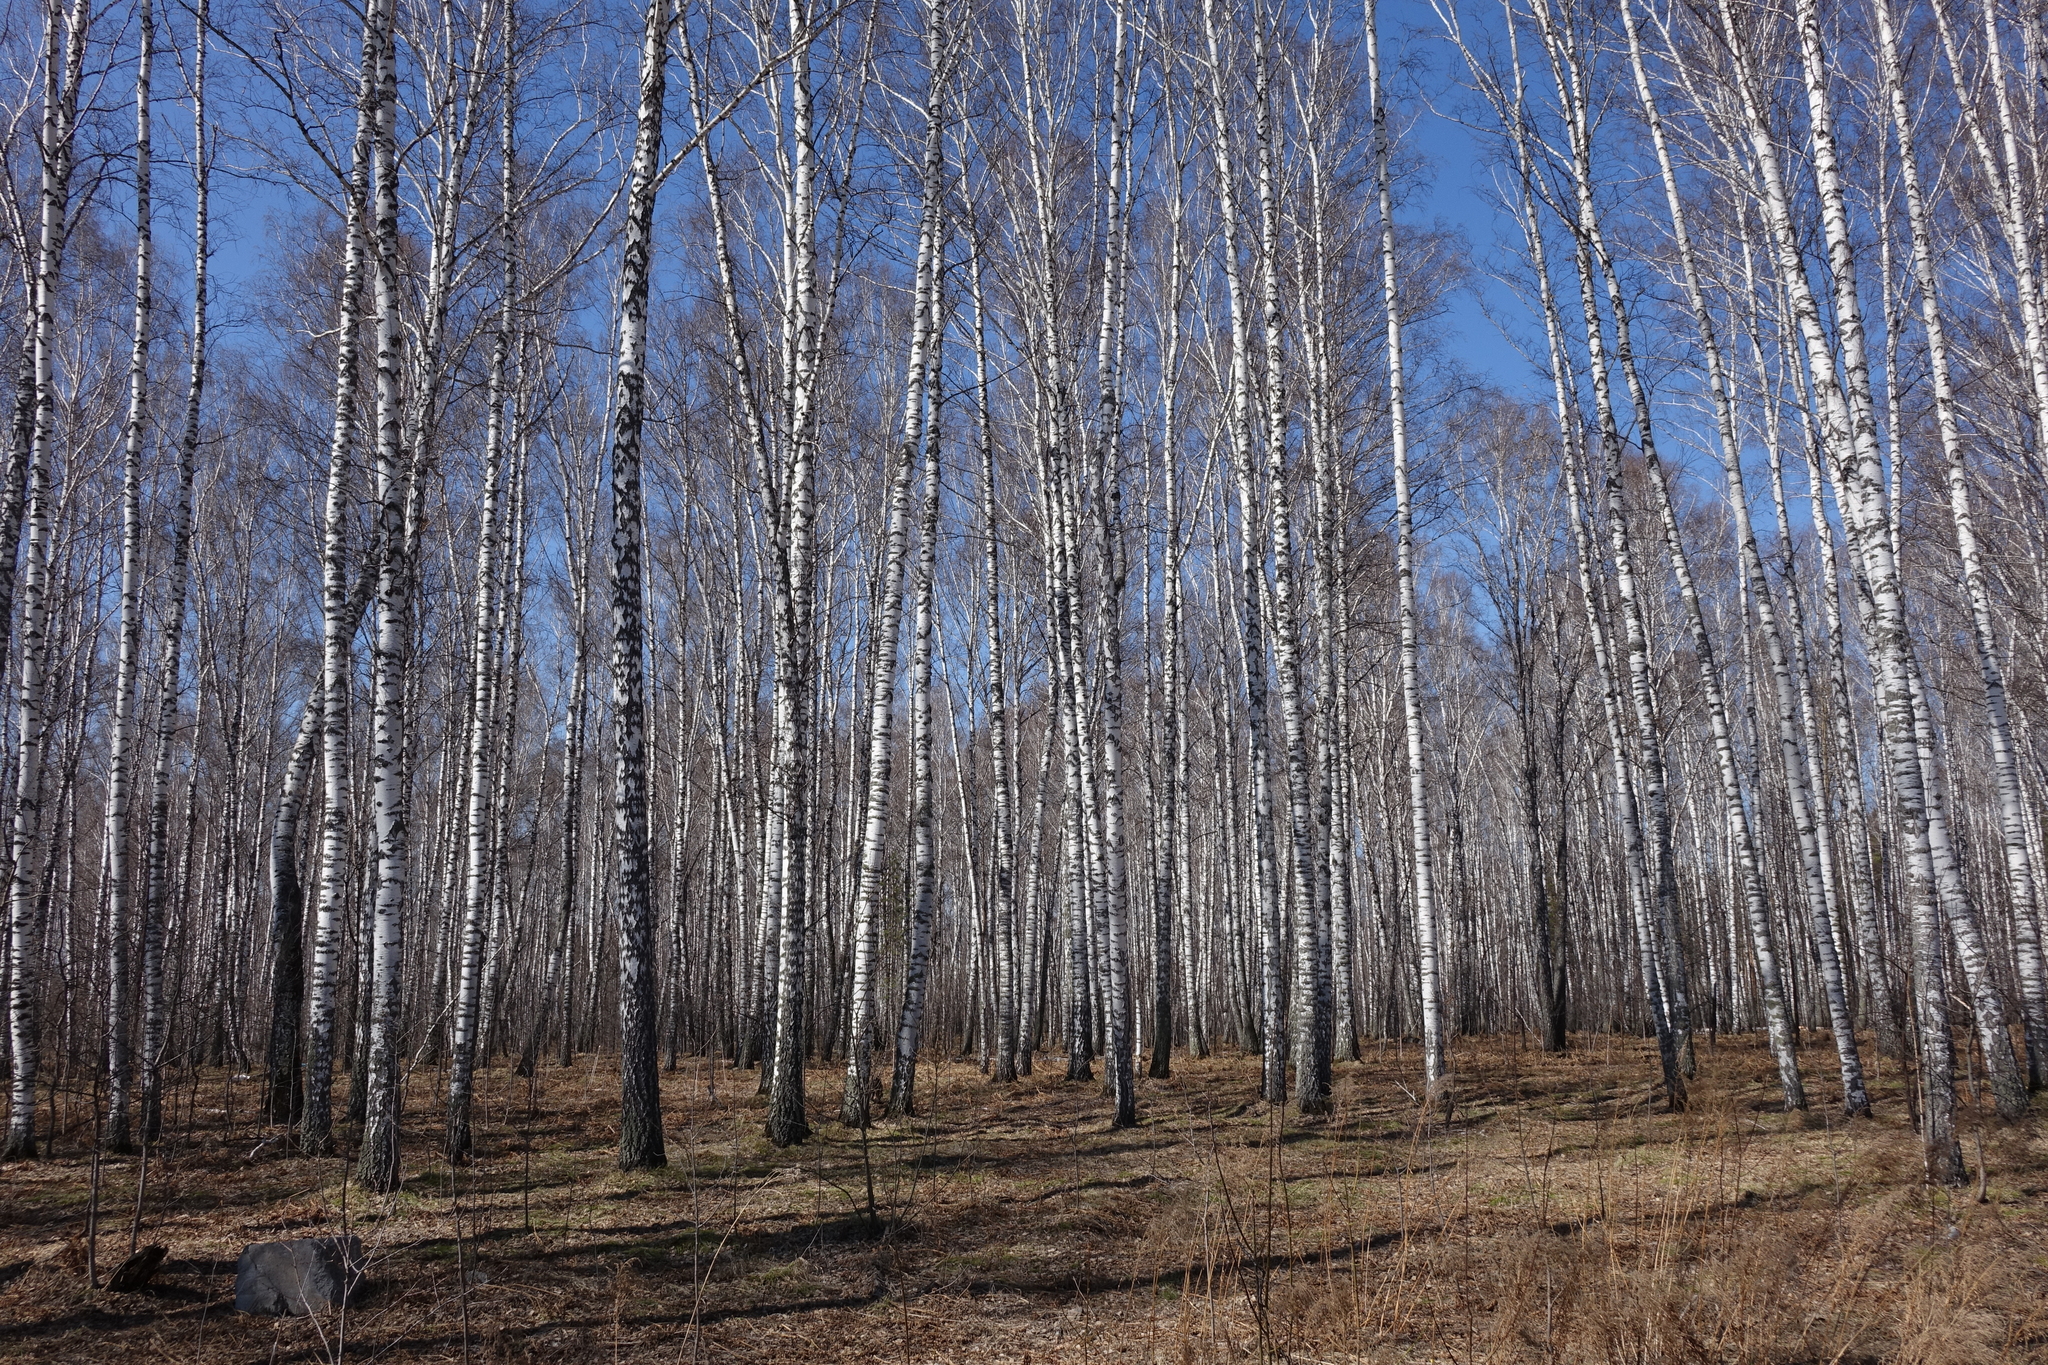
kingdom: Plantae
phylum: Tracheophyta
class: Magnoliopsida
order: Fagales
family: Betulaceae
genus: Betula
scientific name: Betula pendula
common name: Silver birch
